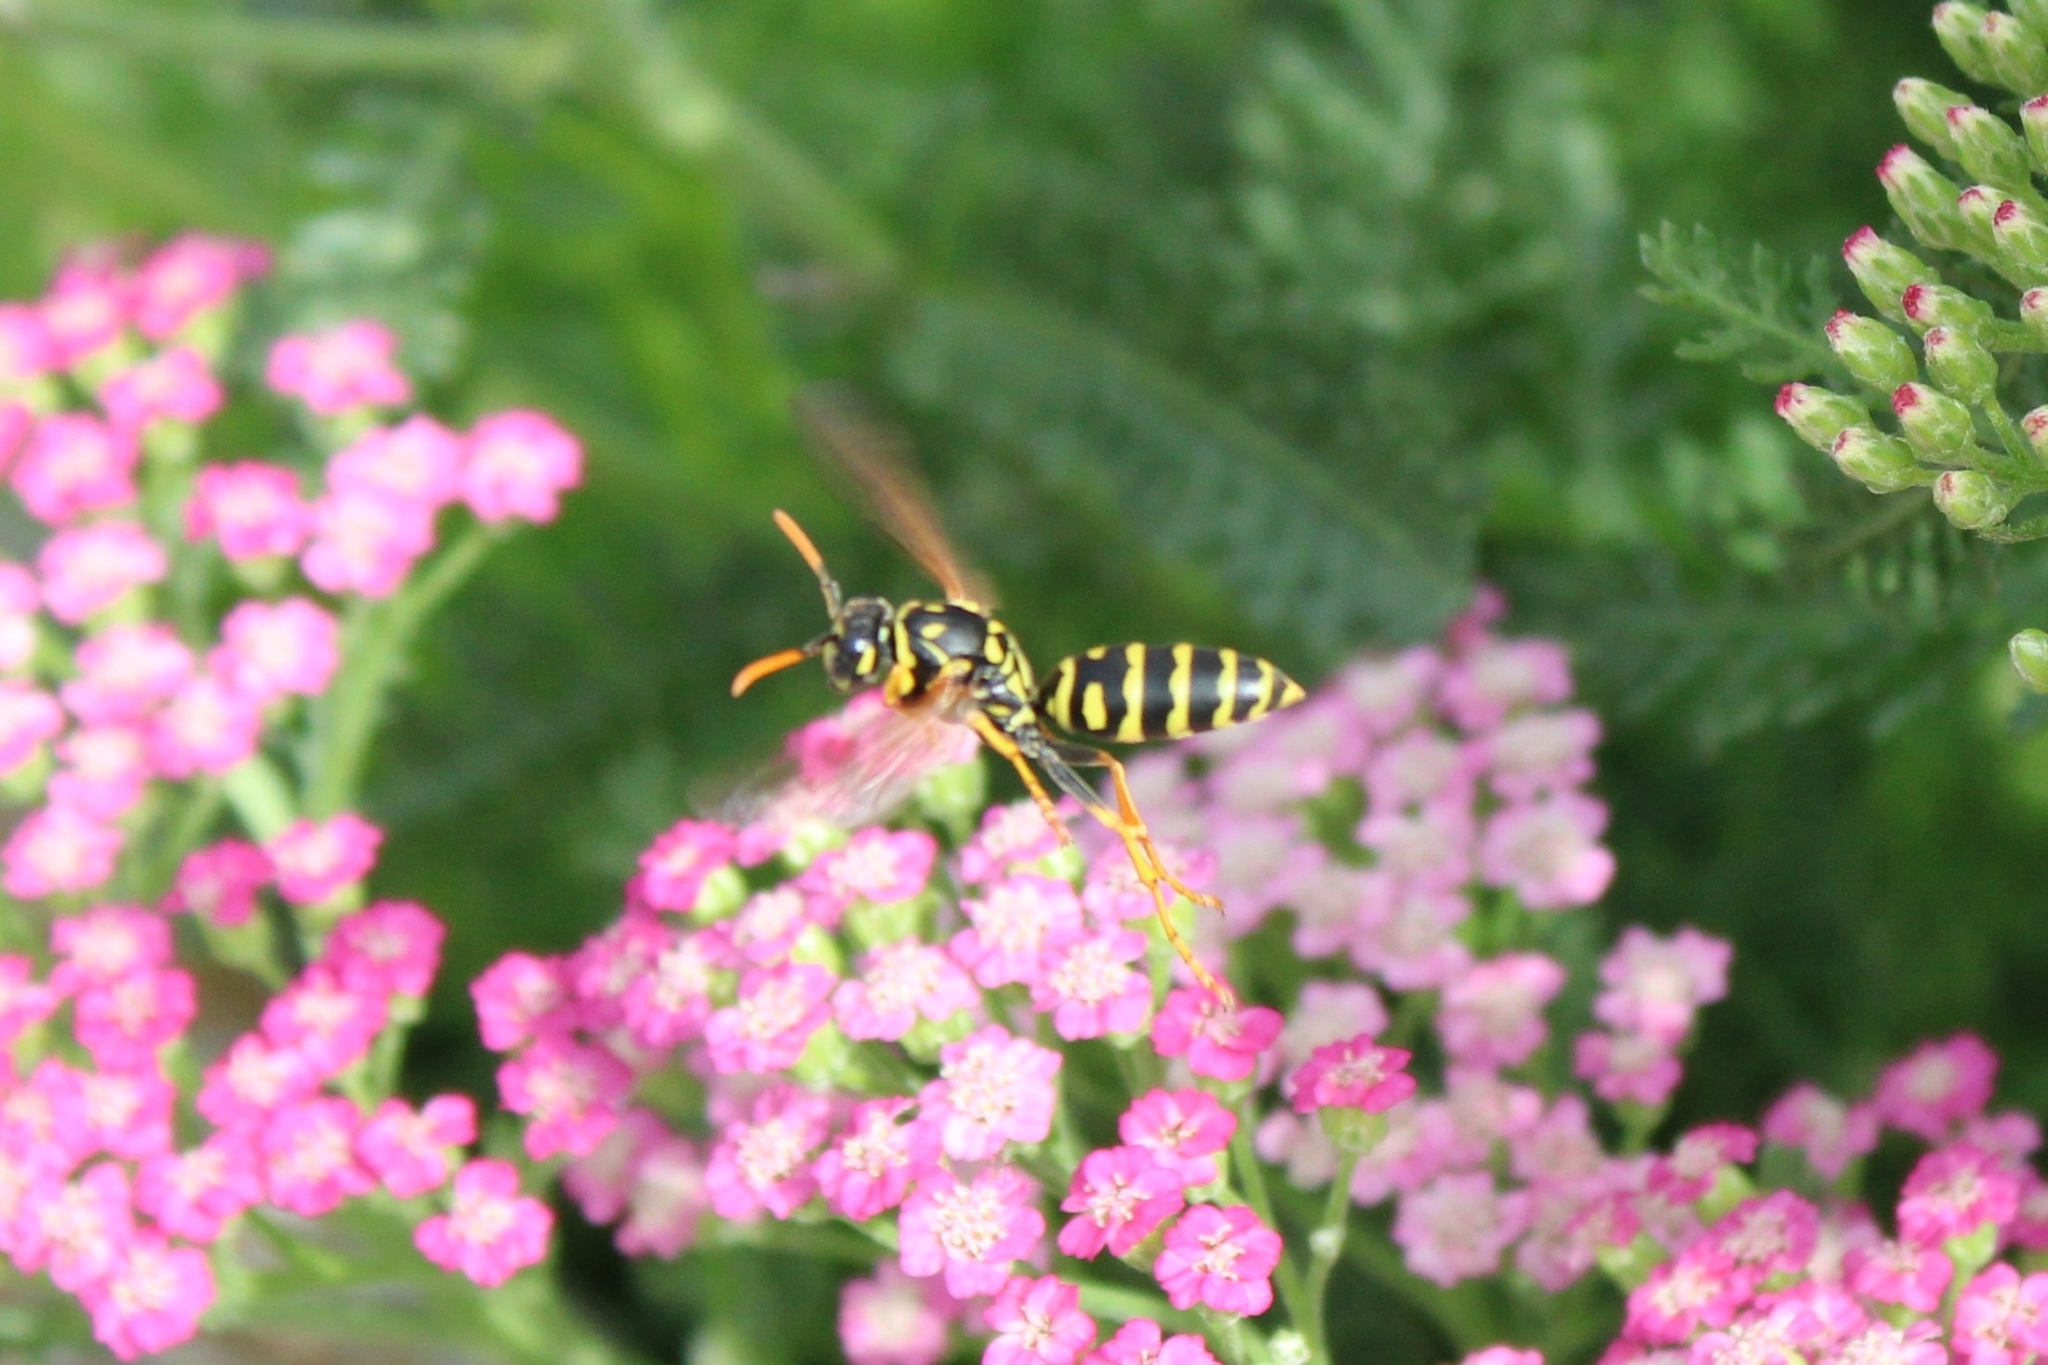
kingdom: Animalia
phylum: Arthropoda
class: Insecta
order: Hymenoptera
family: Eumenidae
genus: Polistes
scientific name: Polistes dominula
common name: Paper wasp
